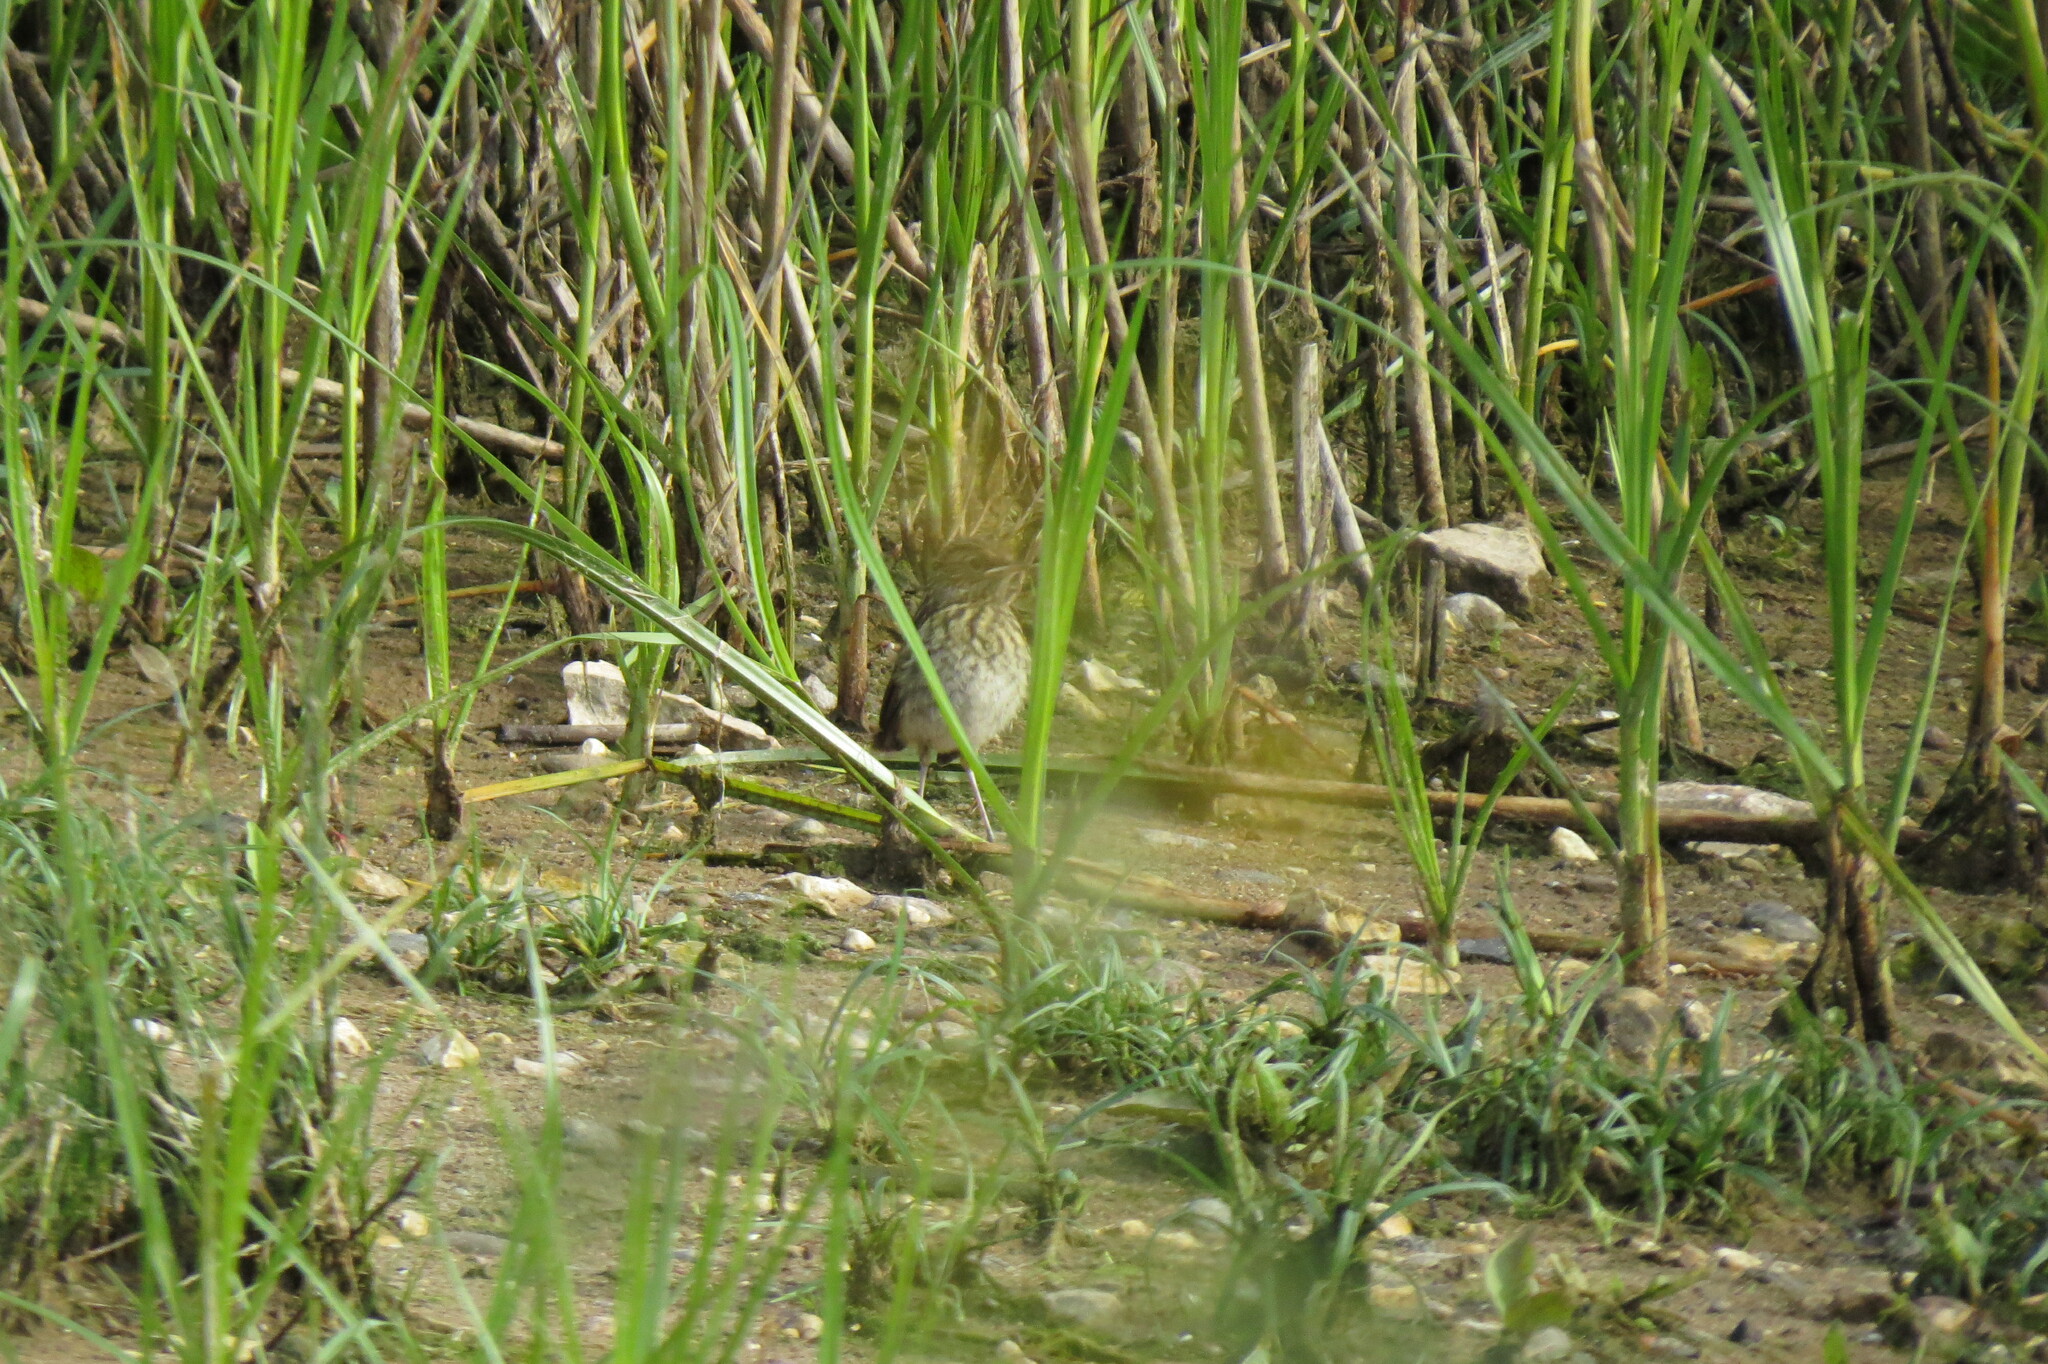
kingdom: Animalia
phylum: Chordata
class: Aves
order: Passeriformes
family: Muscicapidae
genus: Luscinia
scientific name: Luscinia svecica
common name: Bluethroat
